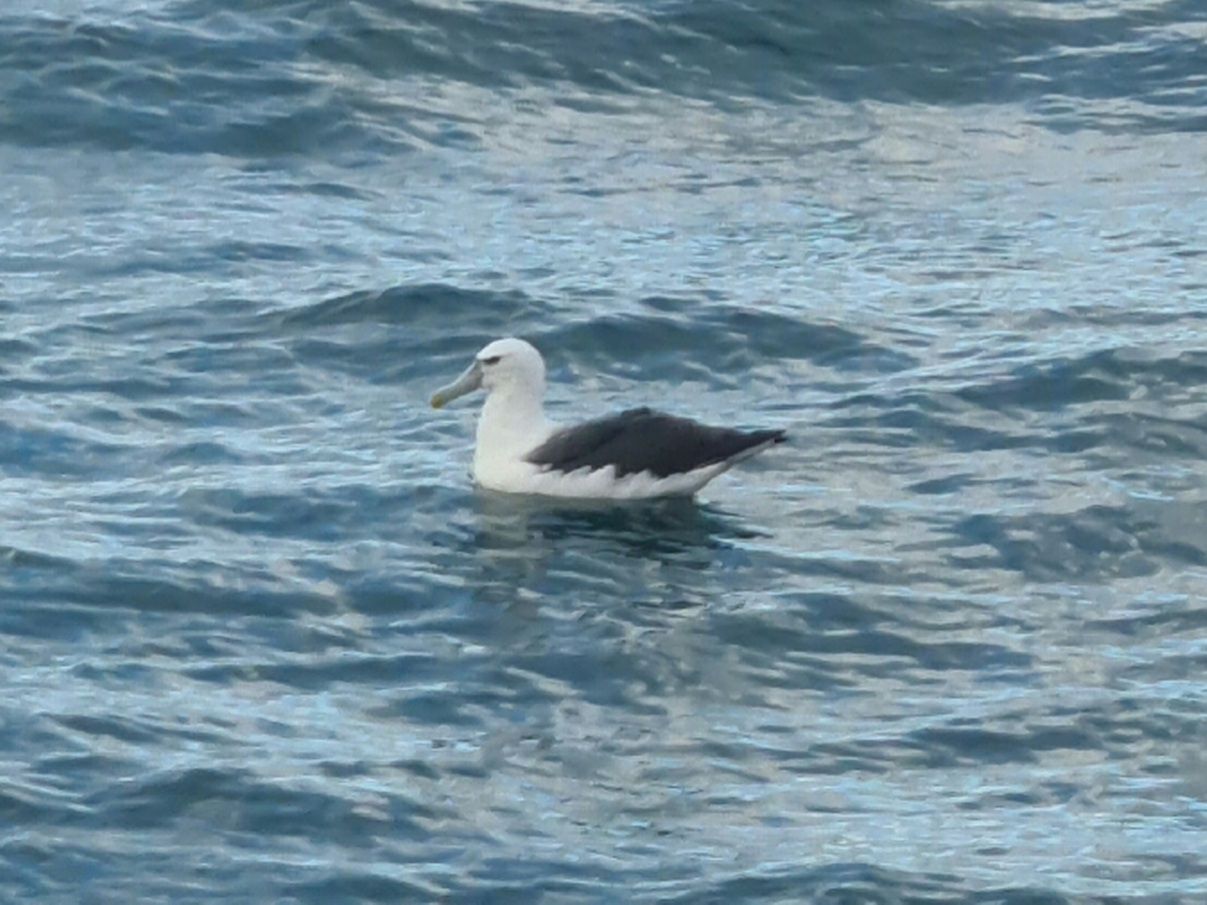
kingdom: Animalia
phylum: Chordata
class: Aves
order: Procellariiformes
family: Diomedeidae
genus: Thalassarche
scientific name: Thalassarche cauta
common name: Shy albatross
